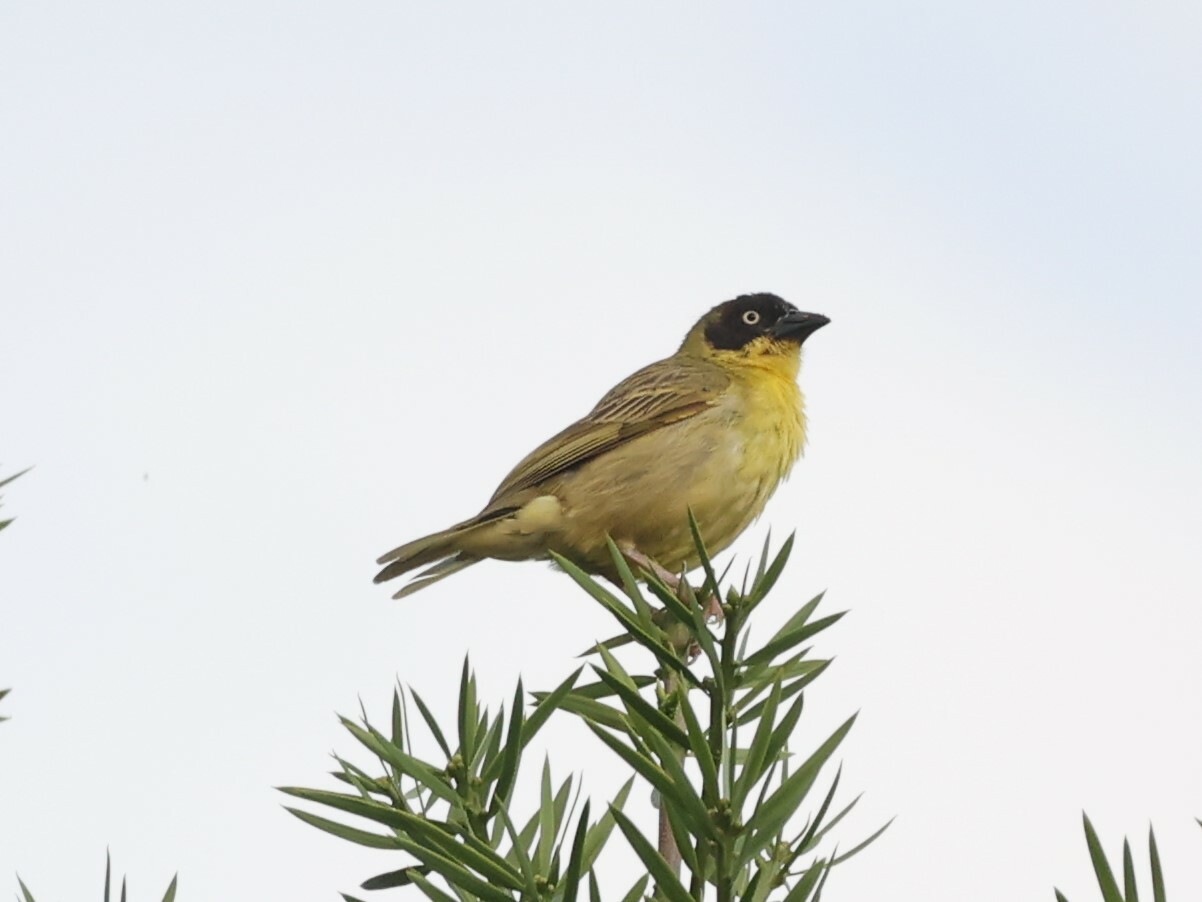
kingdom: Animalia
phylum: Chordata
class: Aves
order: Passeriformes
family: Ploceidae
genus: Ploceus
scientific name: Ploceus baglafecht
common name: Baglafecht weaver
